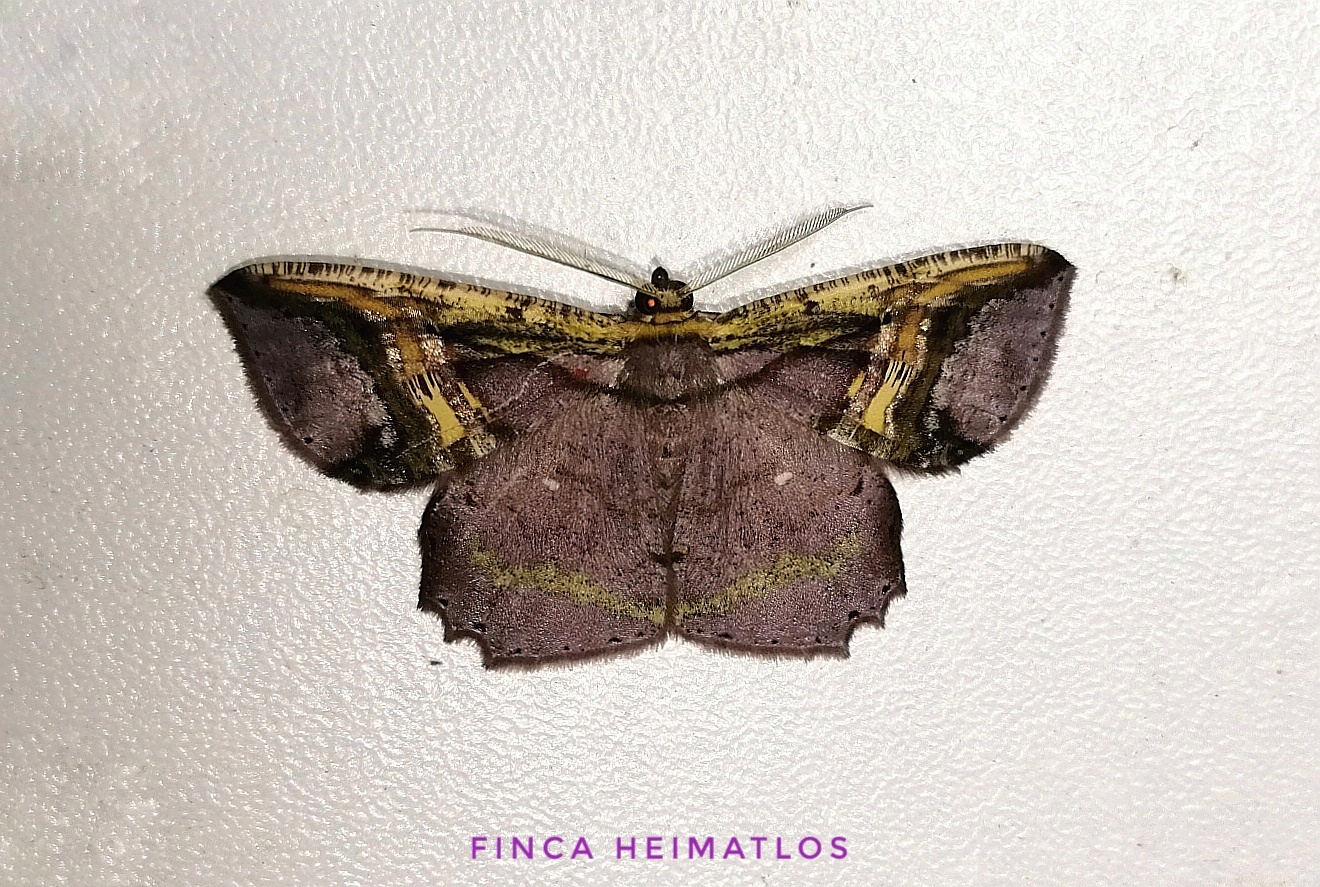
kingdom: Animalia
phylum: Arthropoda
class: Insecta
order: Lepidoptera
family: Geometridae
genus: Thysanopyga
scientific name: Thysanopyga
